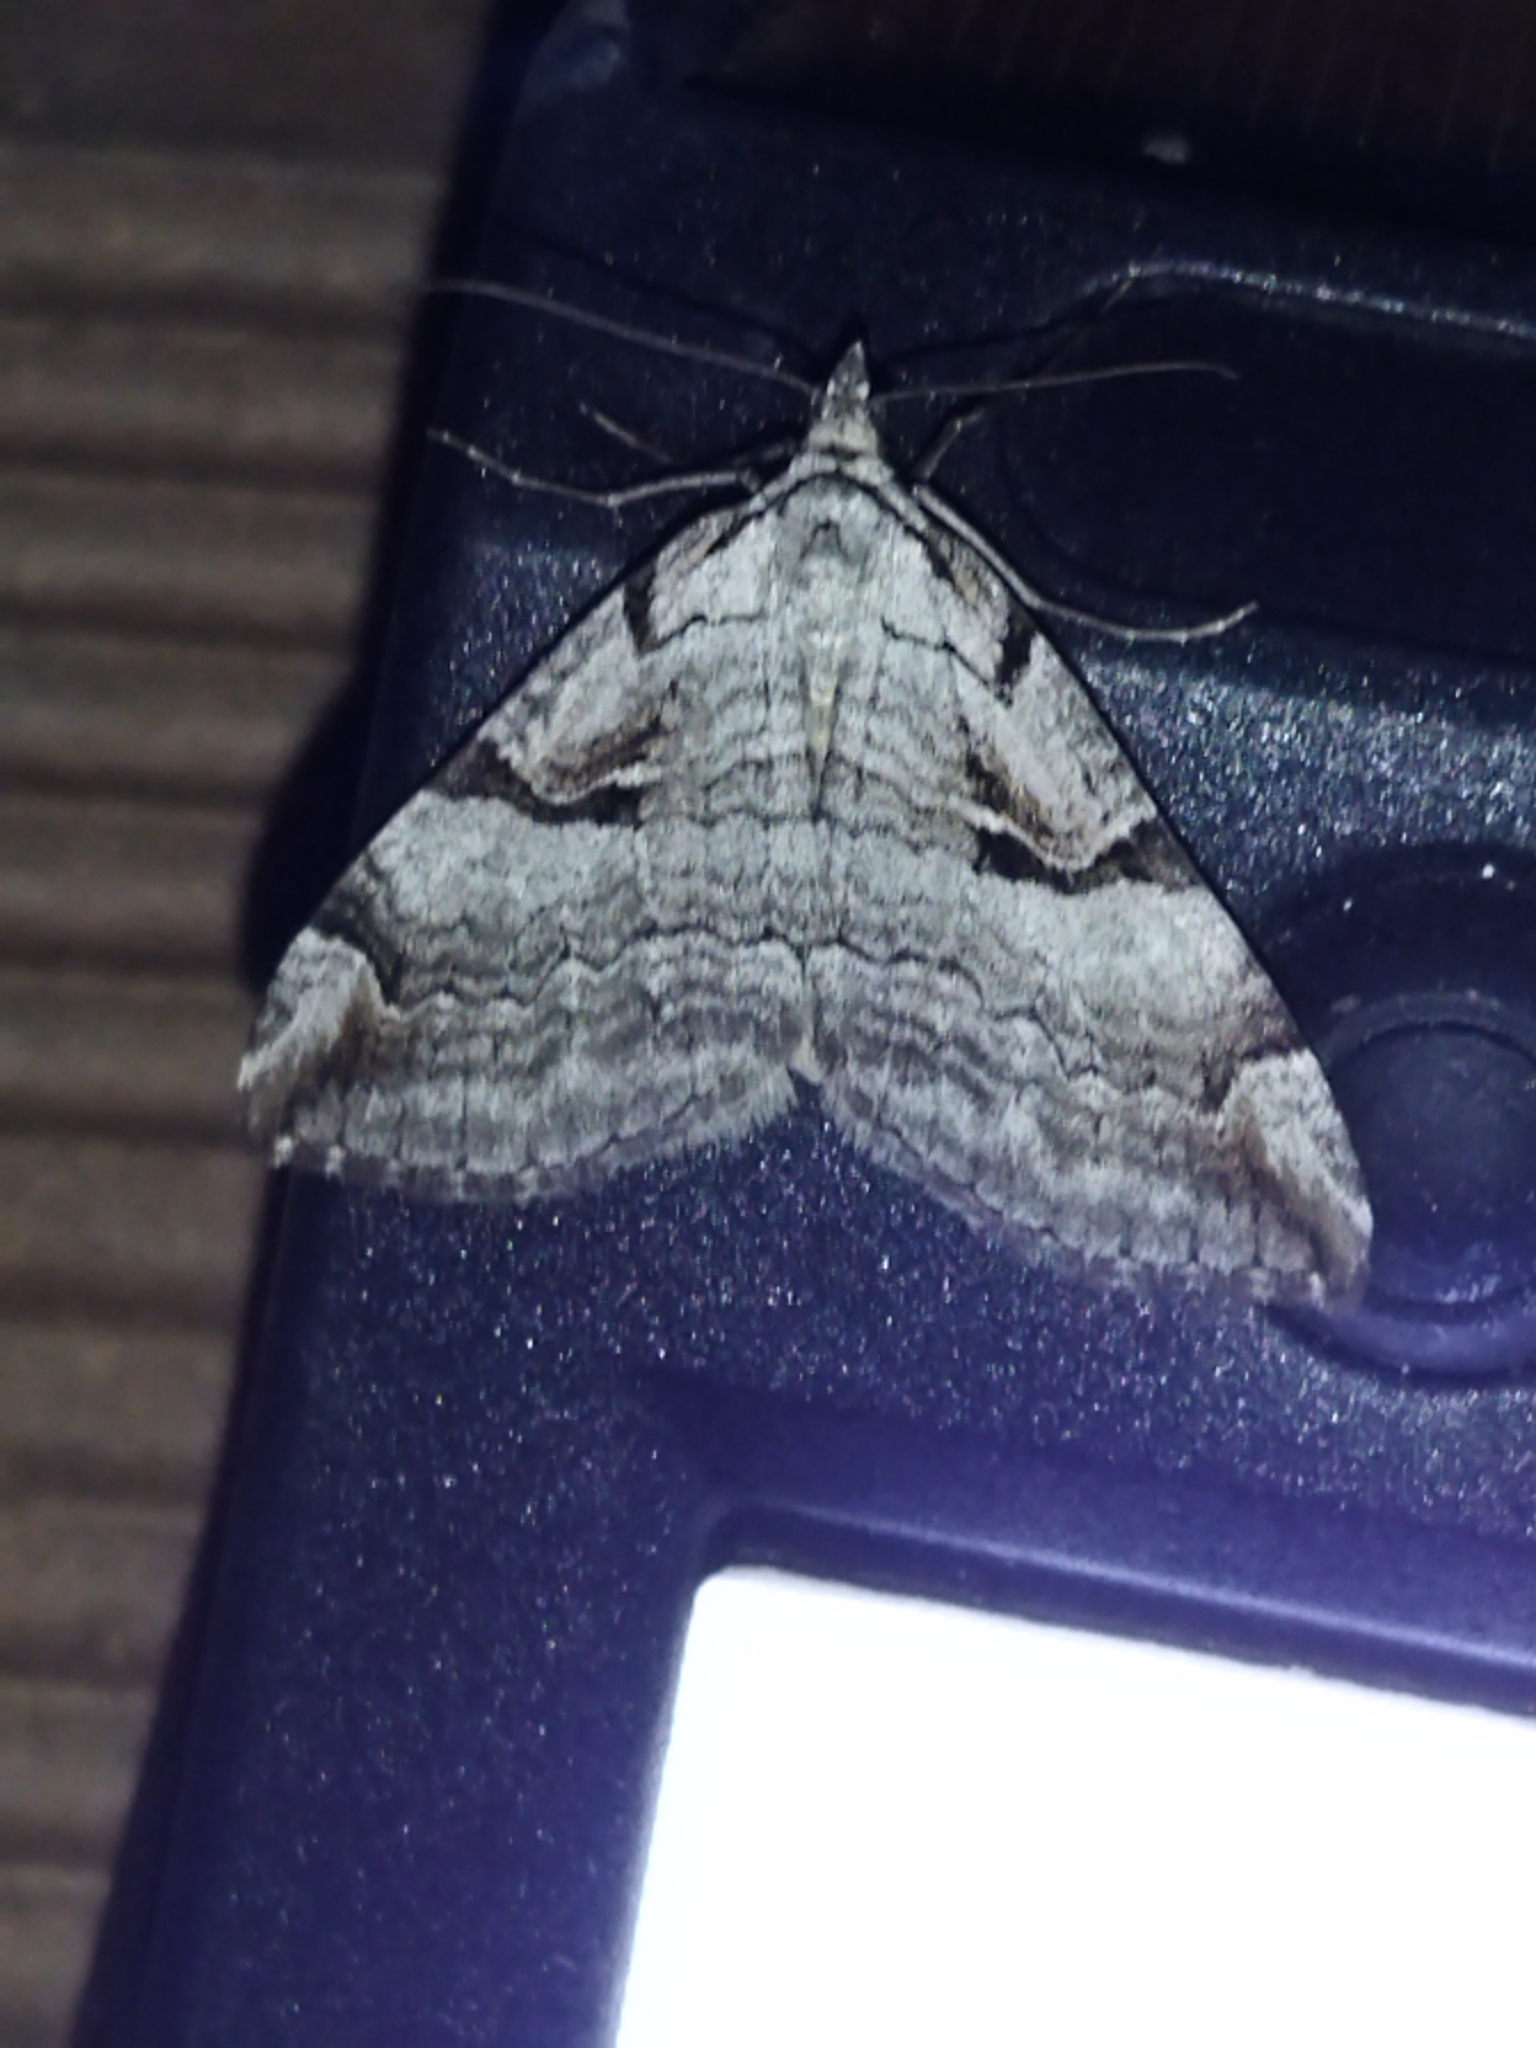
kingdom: Animalia
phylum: Arthropoda
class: Insecta
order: Lepidoptera
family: Geometridae
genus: Aplocera
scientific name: Aplocera praeformata
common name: Purple treble-bar
